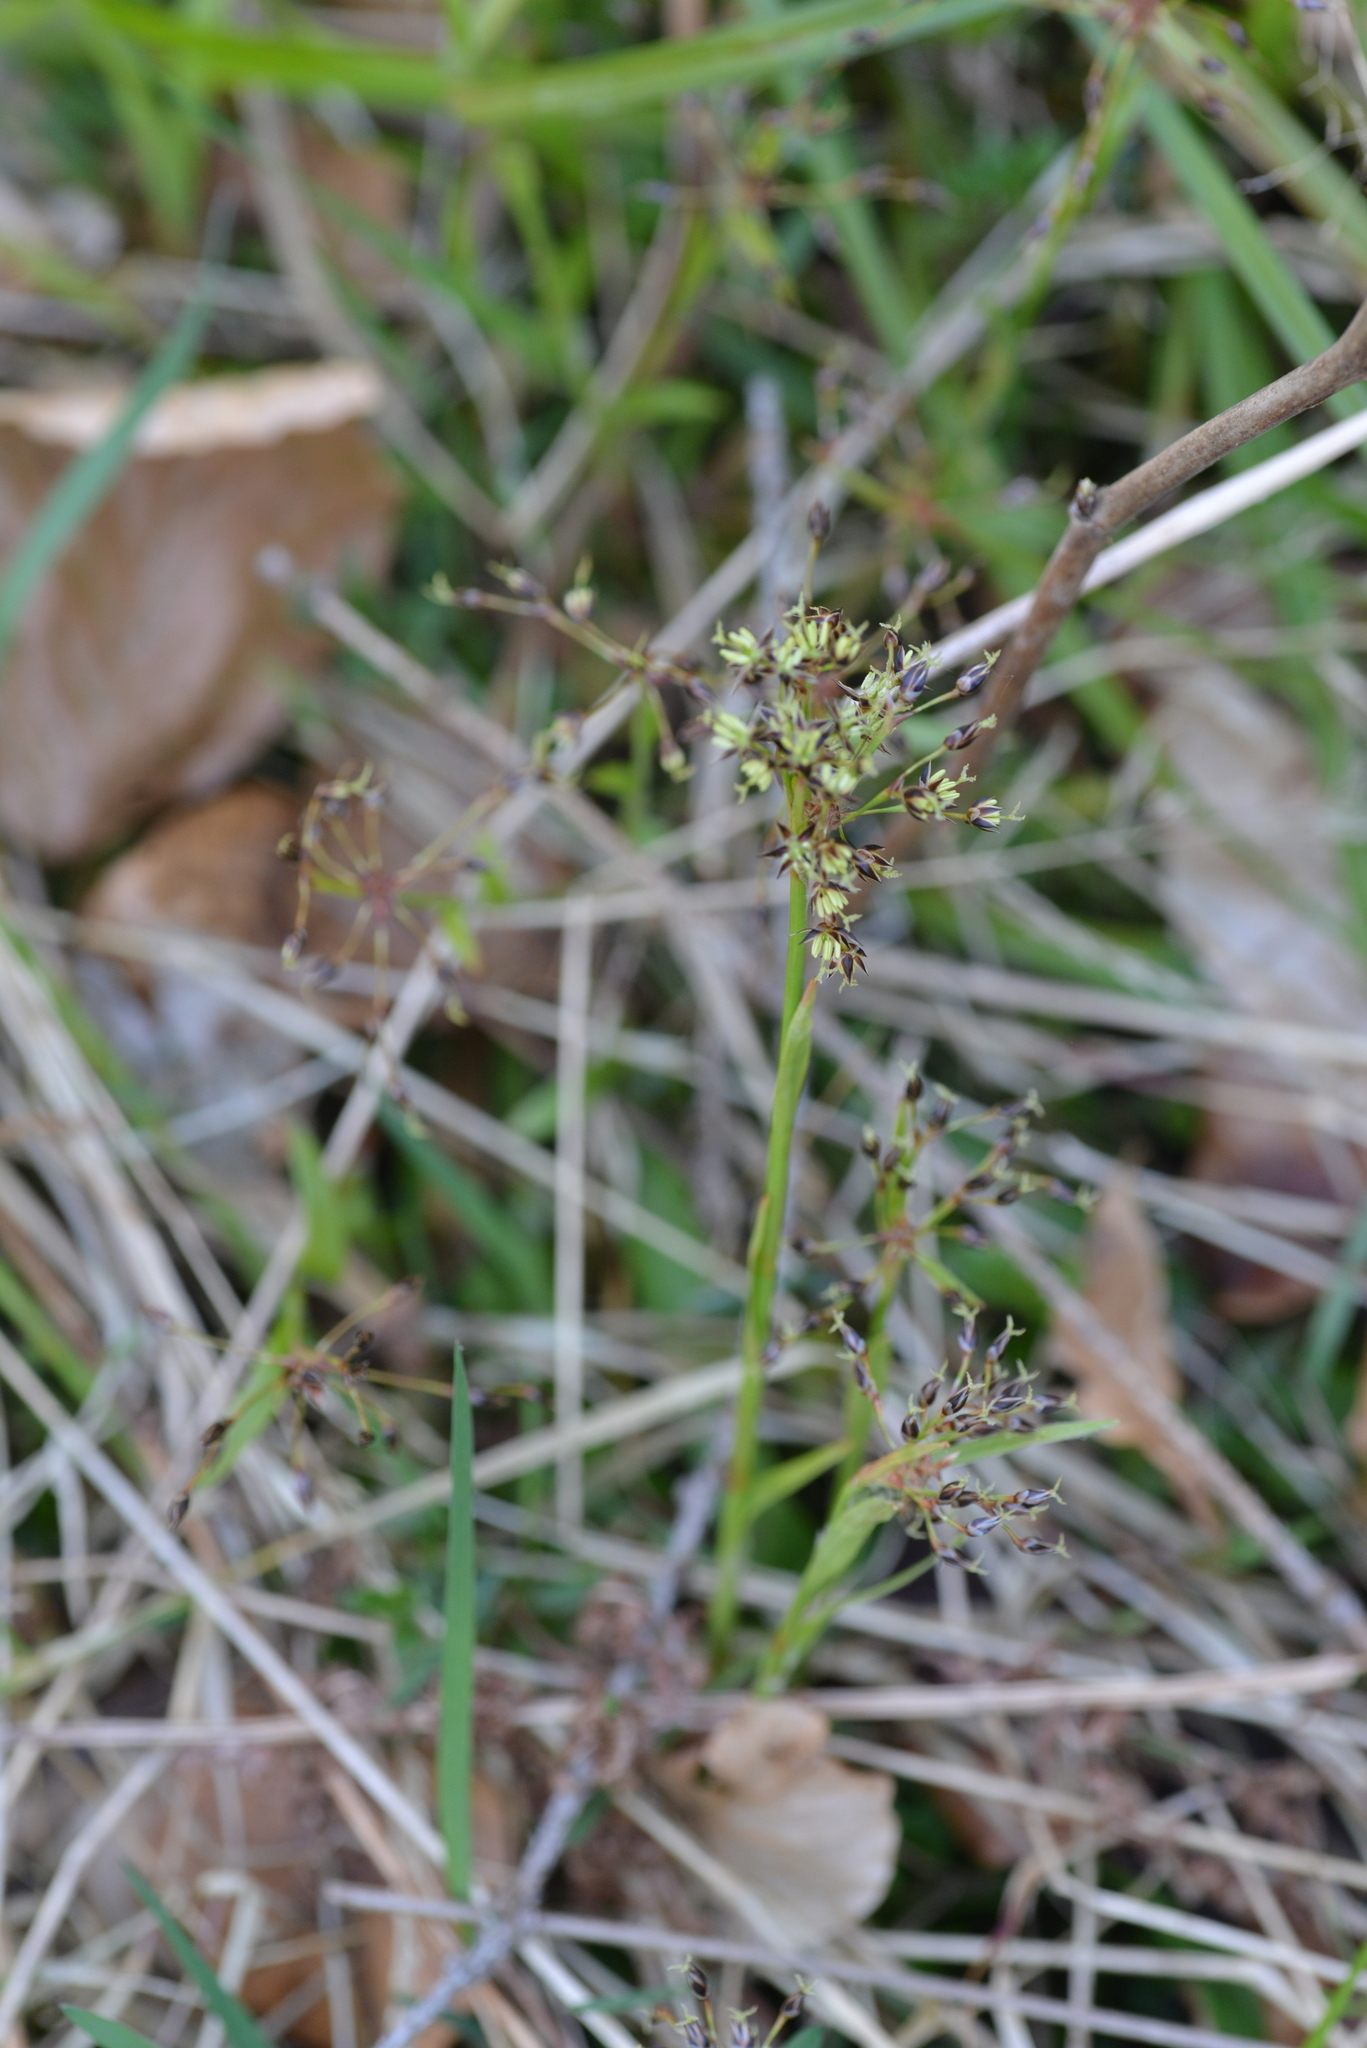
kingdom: Plantae
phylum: Tracheophyta
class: Liliopsida
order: Poales
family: Juncaceae
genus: Luzula
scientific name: Luzula pilosa
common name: Hairy wood-rush
